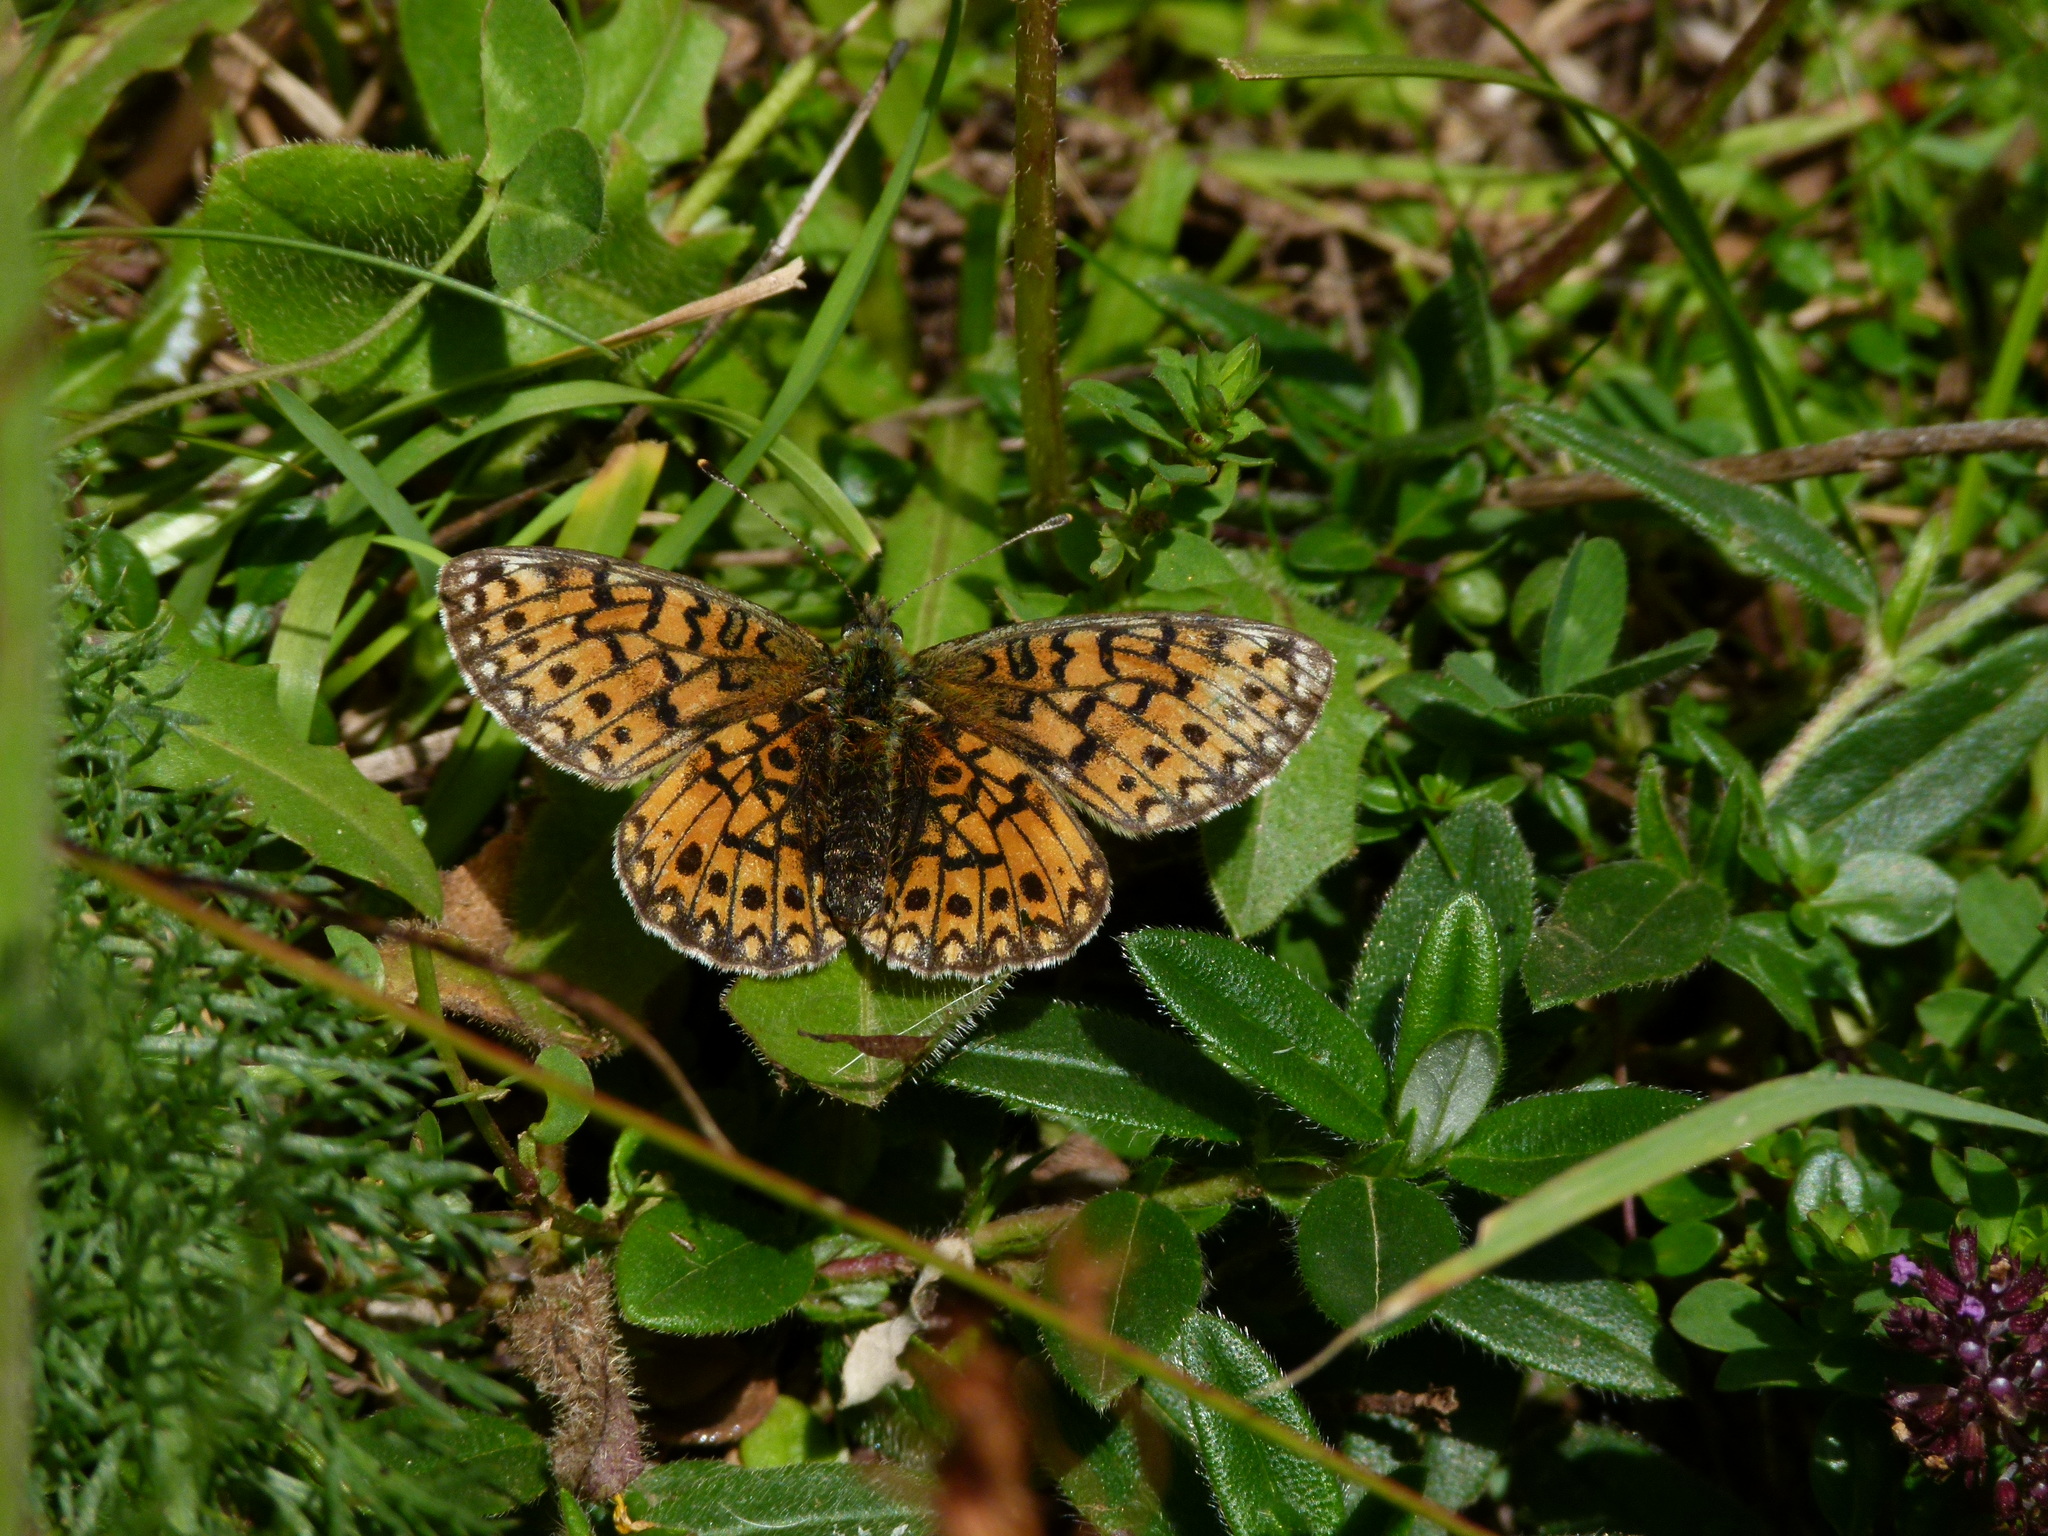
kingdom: Animalia
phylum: Arthropoda
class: Insecta
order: Lepidoptera
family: Nymphalidae
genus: Boloria
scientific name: Boloria selene
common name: Small pearl-bordered fritillary
